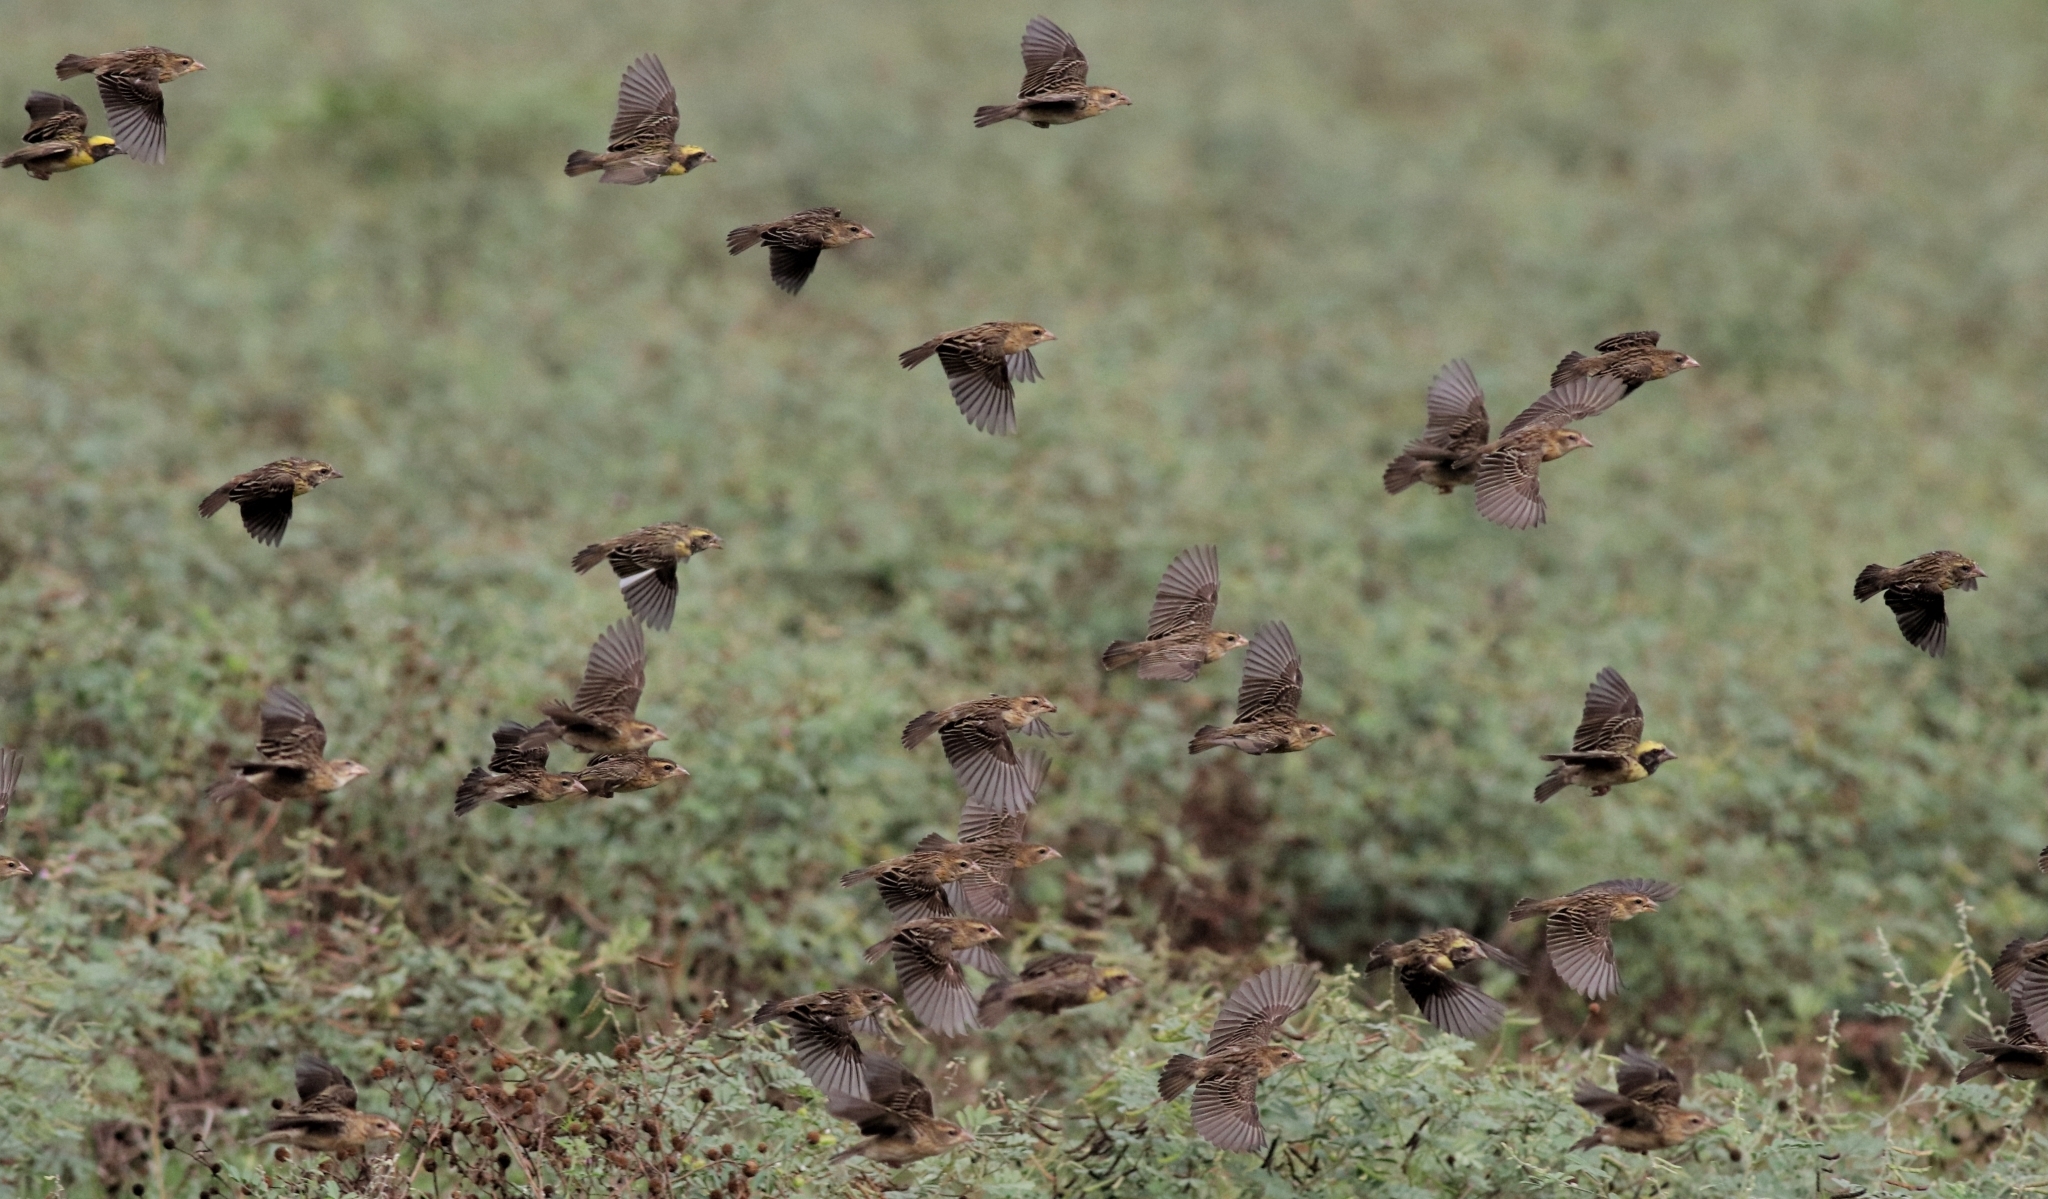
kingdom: Animalia
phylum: Chordata
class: Aves
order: Passeriformes
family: Ploceidae
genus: Ploceus
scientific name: Ploceus philippinus
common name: Baya weaver
